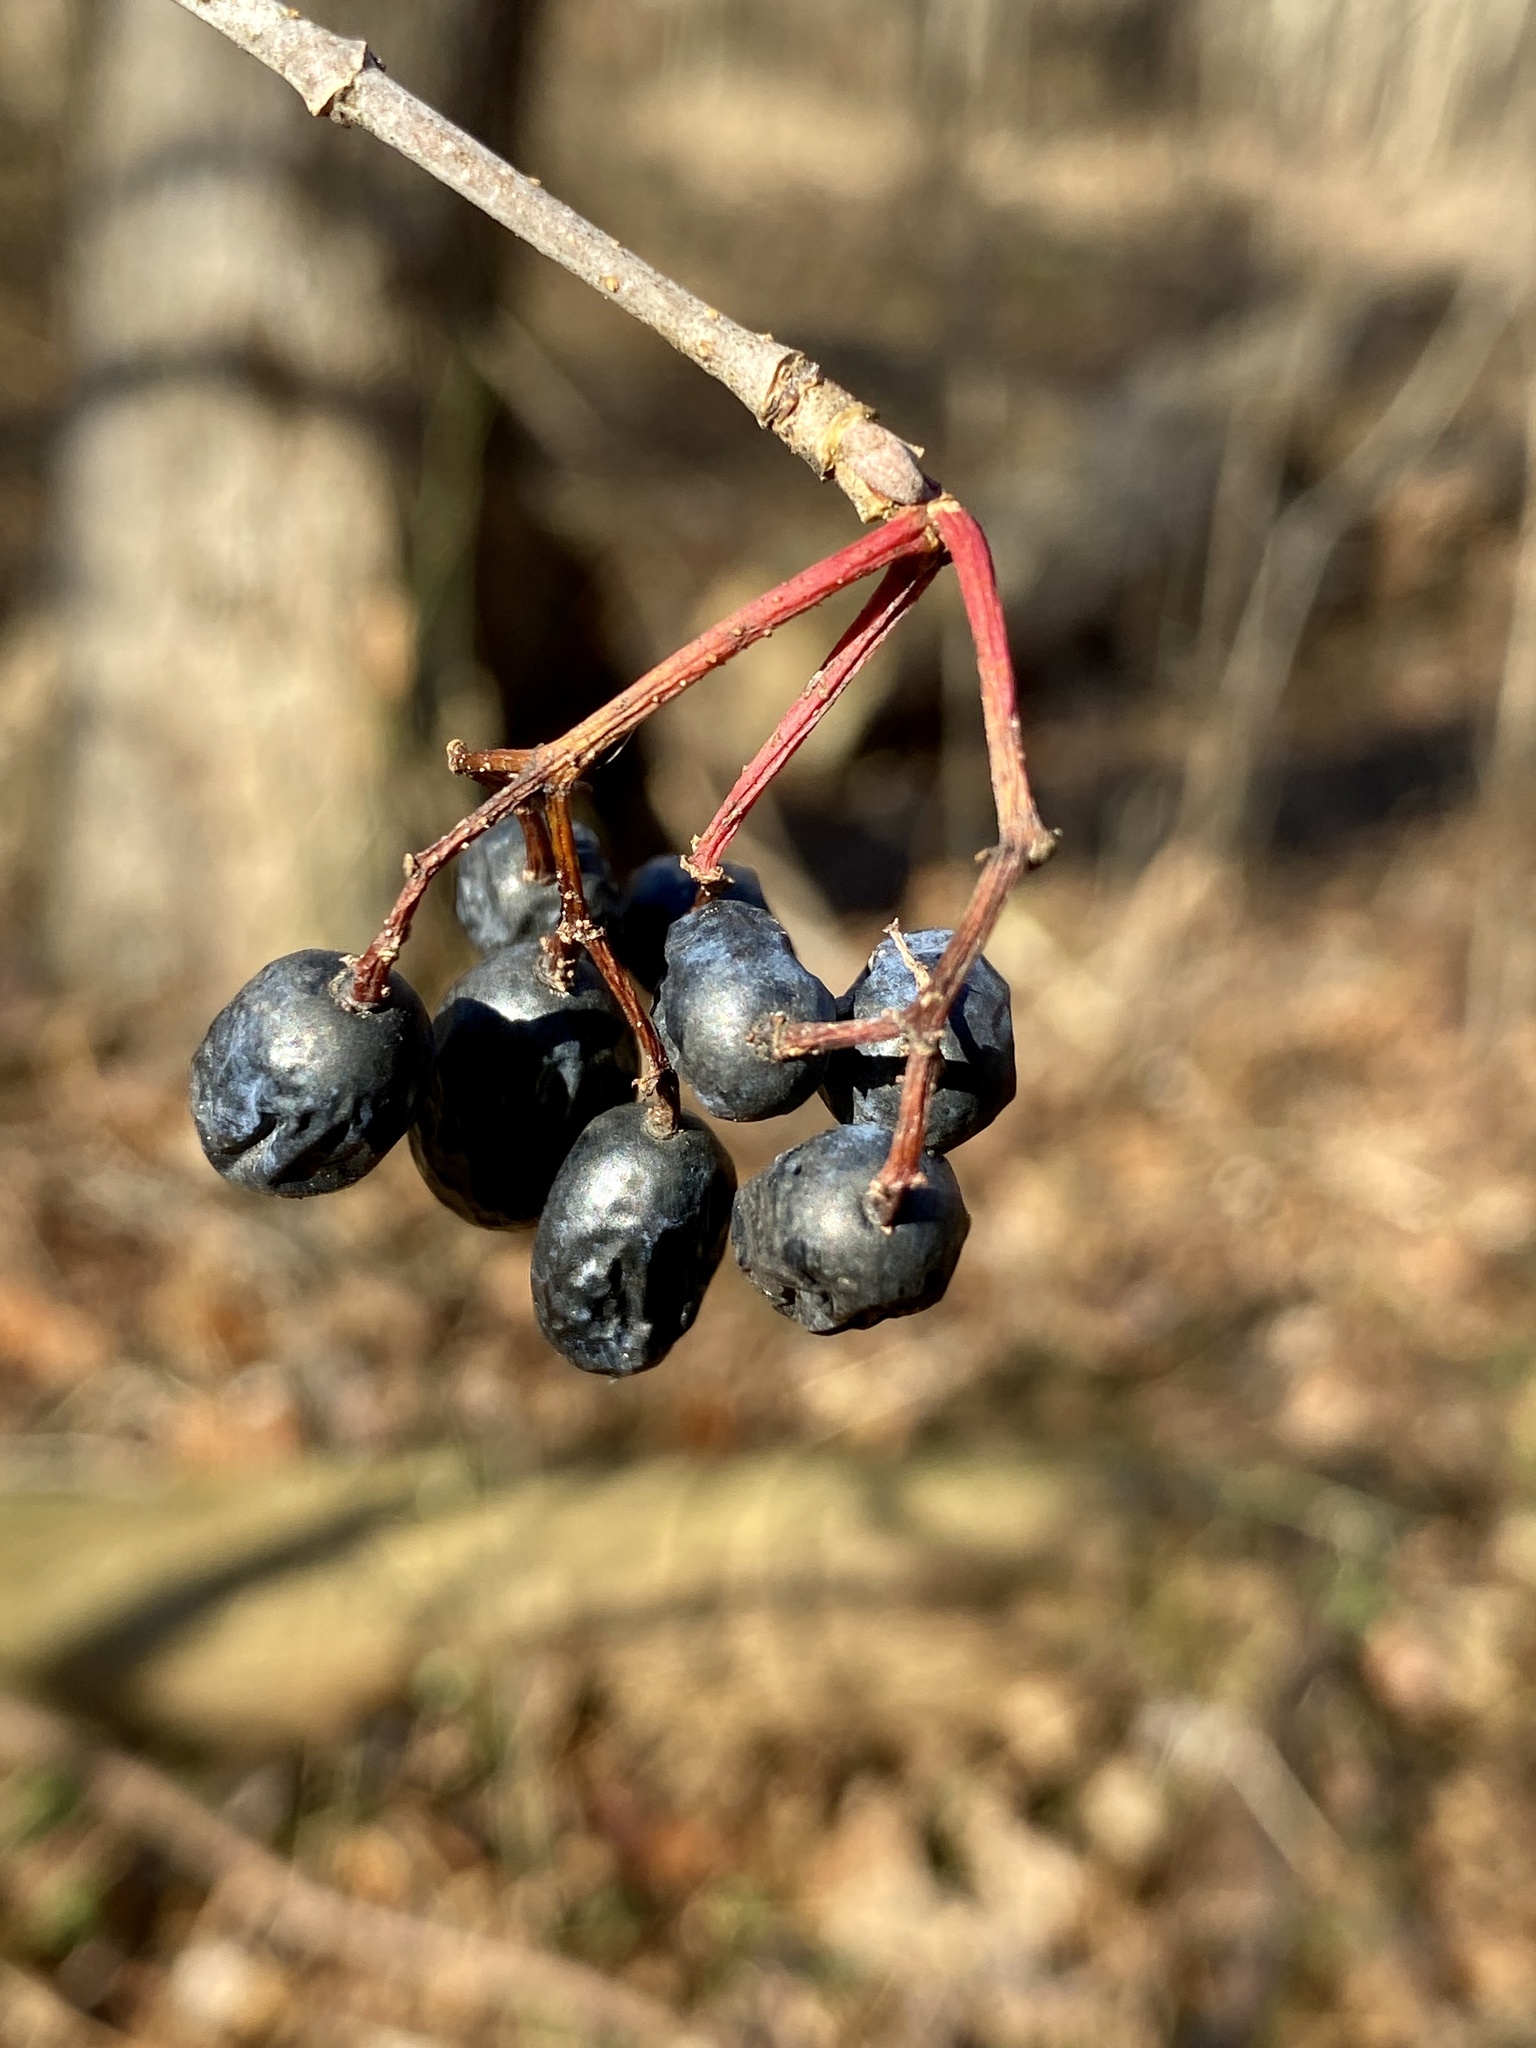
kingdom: Plantae
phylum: Tracheophyta
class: Magnoliopsida
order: Dipsacales
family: Viburnaceae
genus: Viburnum
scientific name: Viburnum prunifolium
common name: Black haw
